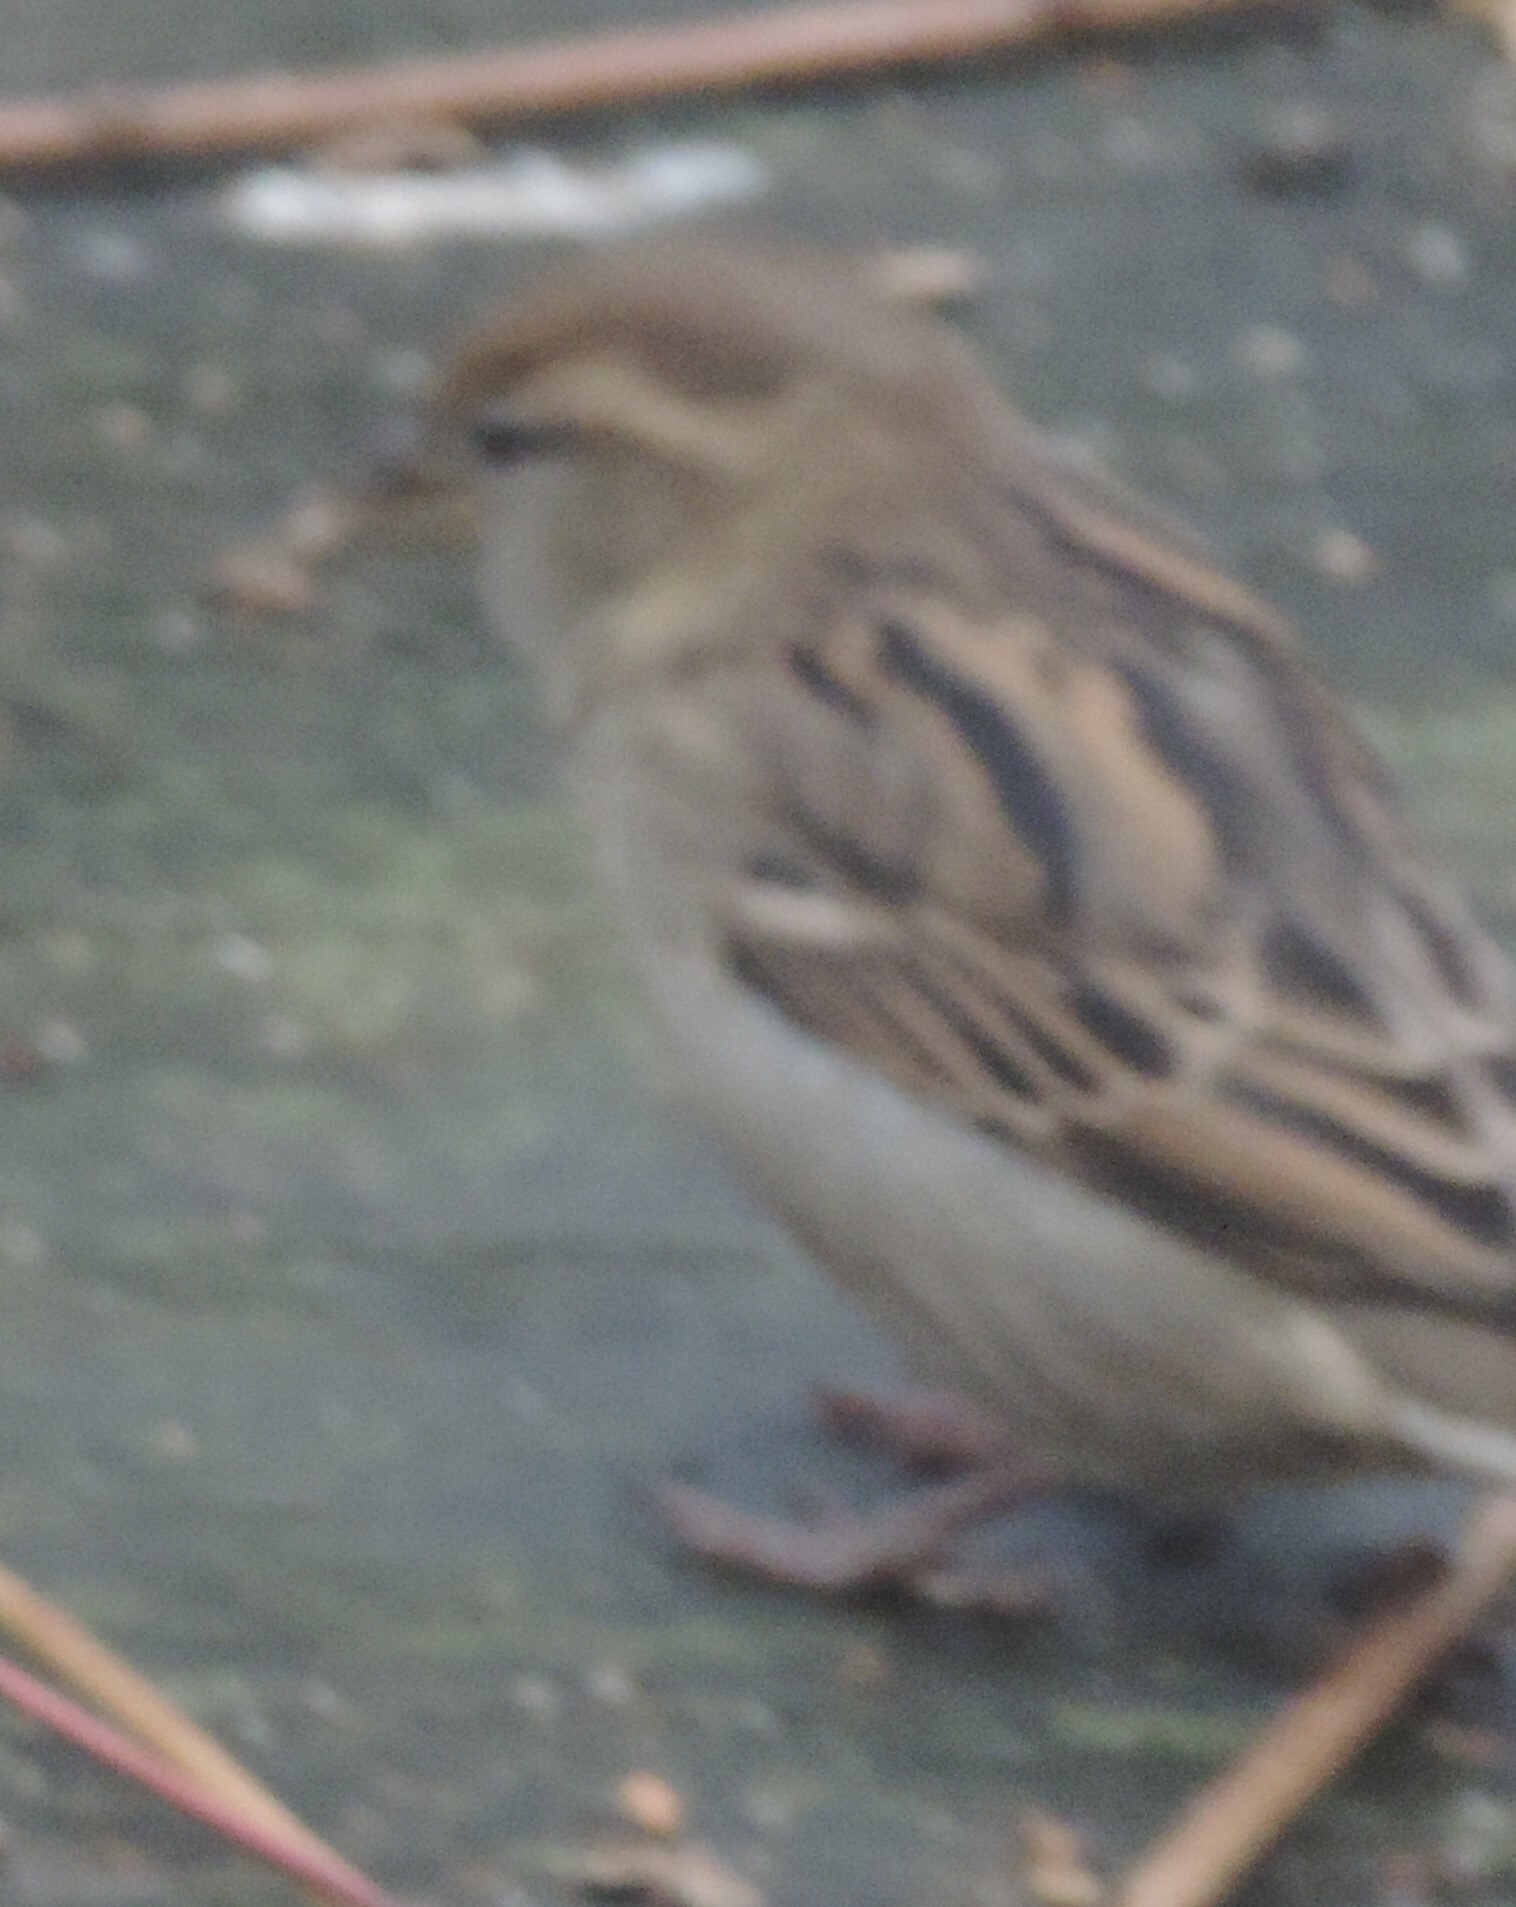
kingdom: Animalia
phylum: Chordata
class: Aves
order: Passeriformes
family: Passeridae
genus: Passer
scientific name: Passer domesticus
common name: House sparrow
